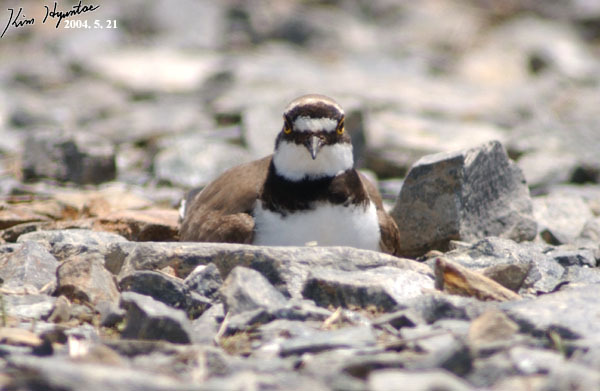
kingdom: Animalia
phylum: Chordata
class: Aves
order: Charadriiformes
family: Charadriidae
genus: Charadrius
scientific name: Charadrius dubius
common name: Little ringed plover
